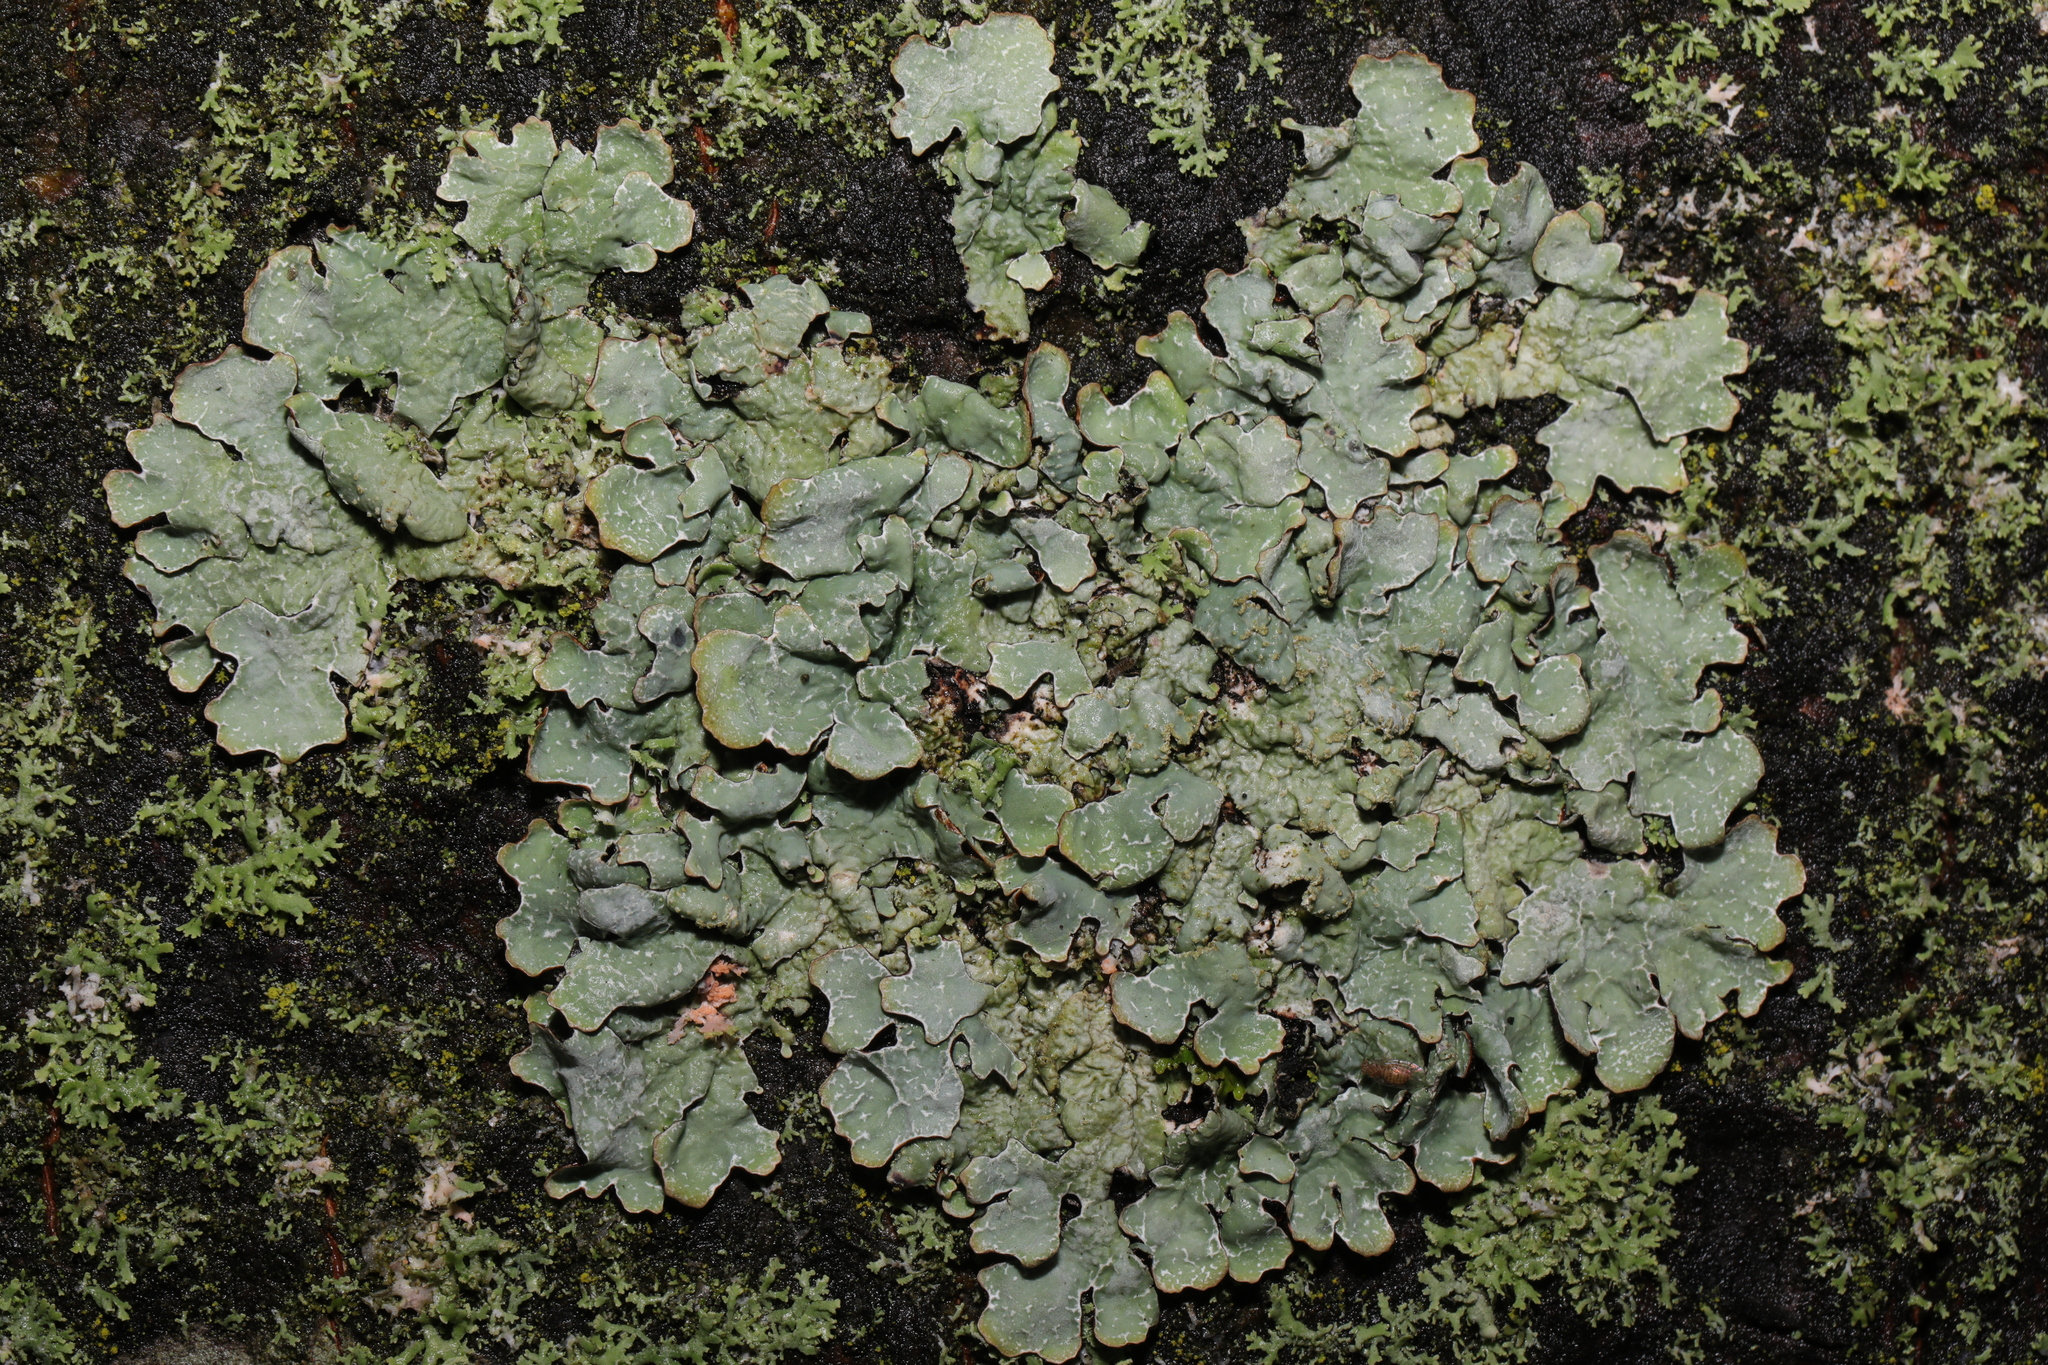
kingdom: Fungi
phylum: Ascomycota
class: Lecanoromycetes
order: Lecanorales
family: Parmeliaceae
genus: Parmelia
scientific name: Parmelia sulcata
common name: Netted shield lichen
